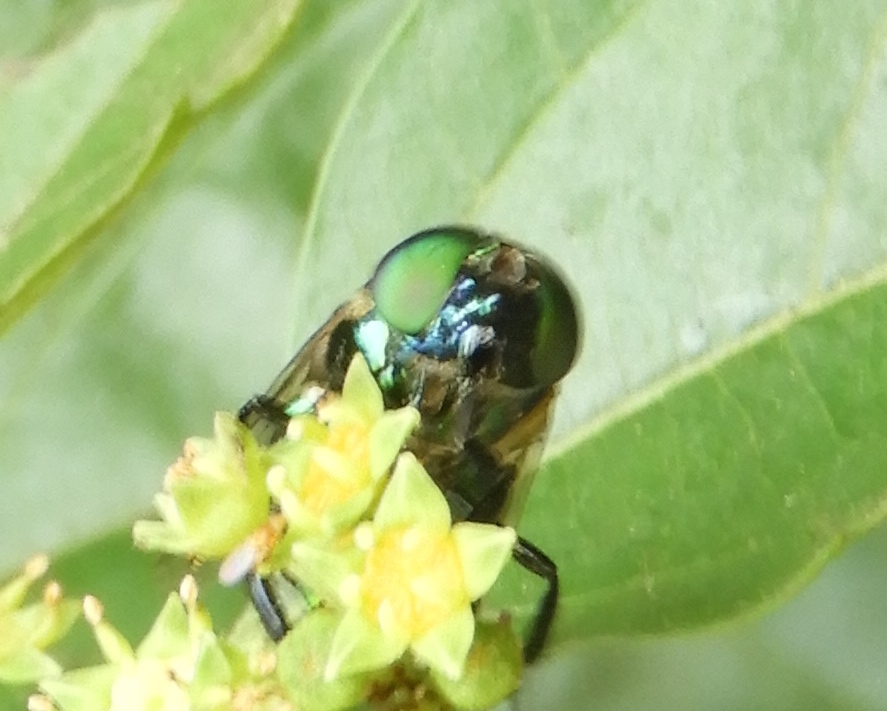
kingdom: Animalia
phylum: Arthropoda
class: Insecta
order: Diptera
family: Syrphidae
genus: Ornidia
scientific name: Ornidia obesa
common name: Syrphid fly
